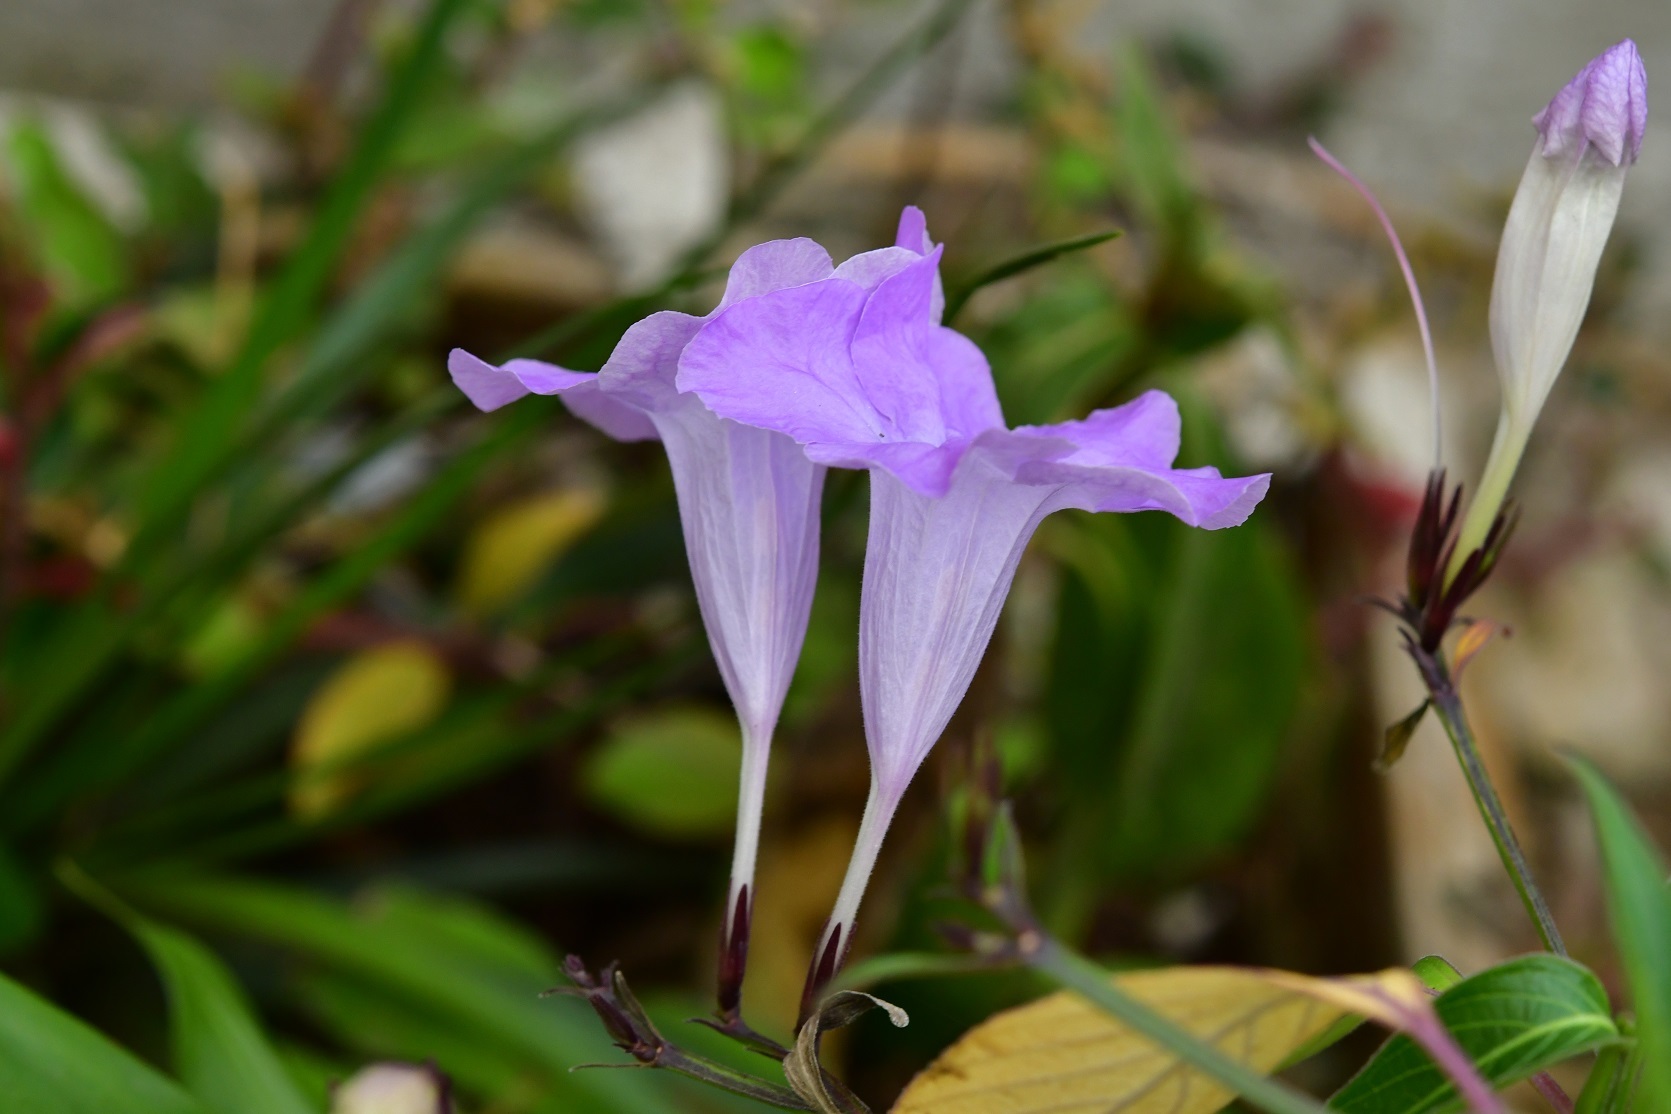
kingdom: Plantae
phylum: Tracheophyta
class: Magnoliopsida
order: Lamiales
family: Acanthaceae
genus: Ruellia
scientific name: Ruellia breedlovei
